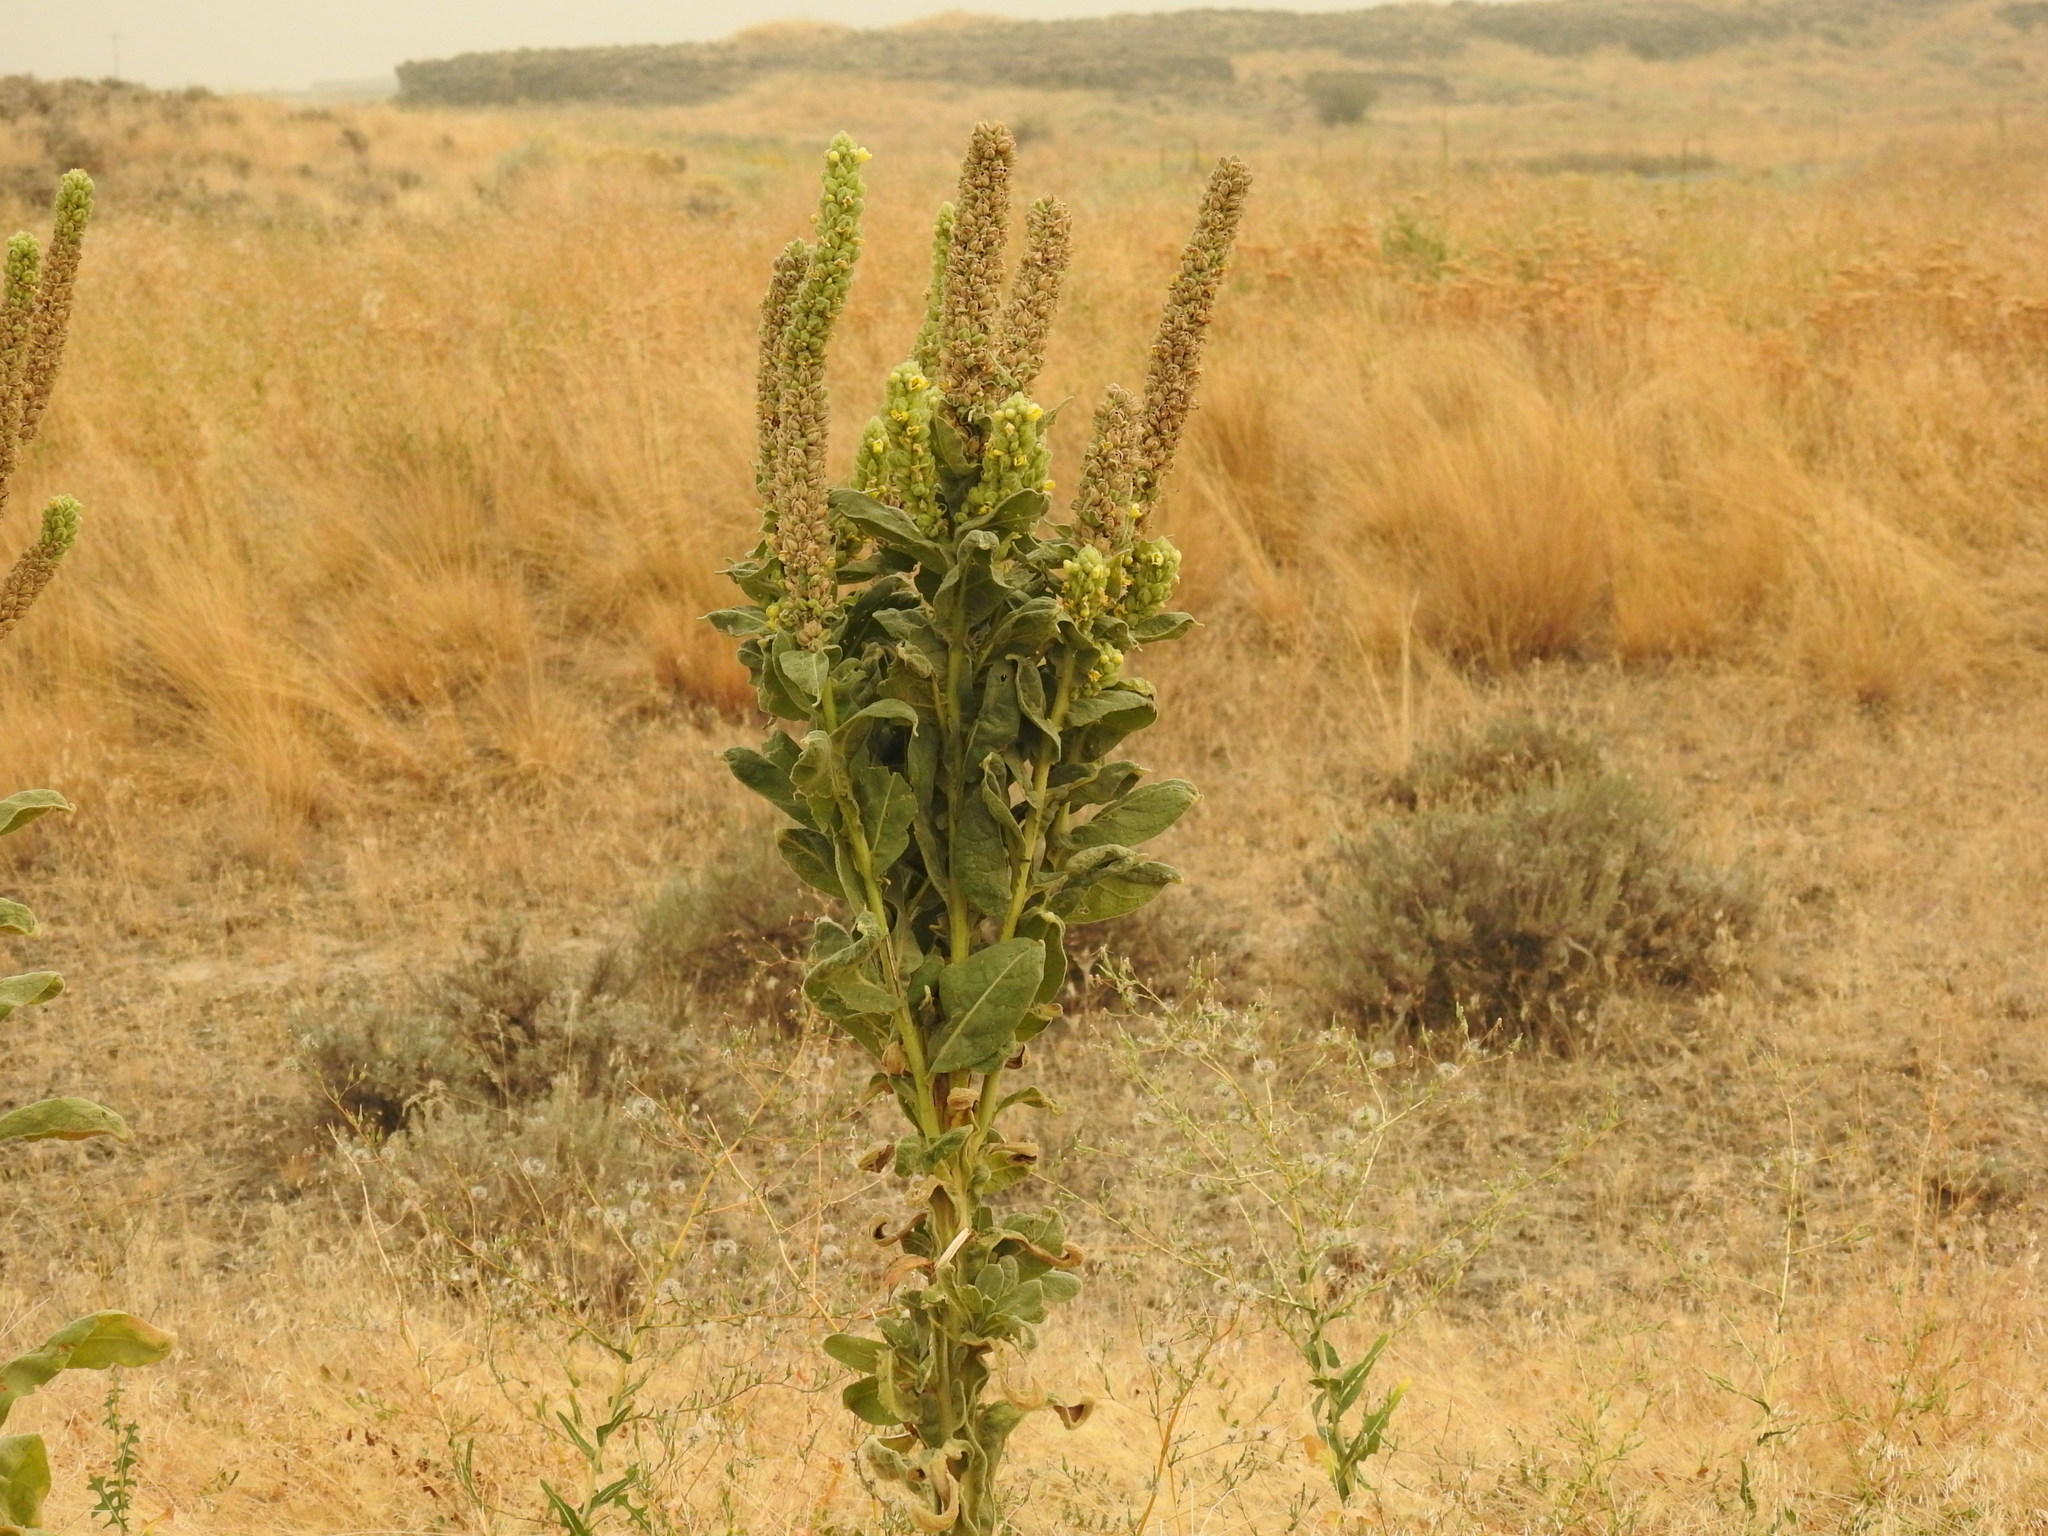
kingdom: Plantae
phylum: Tracheophyta
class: Magnoliopsida
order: Lamiales
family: Scrophulariaceae
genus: Verbascum
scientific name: Verbascum thapsus
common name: Common mullein
